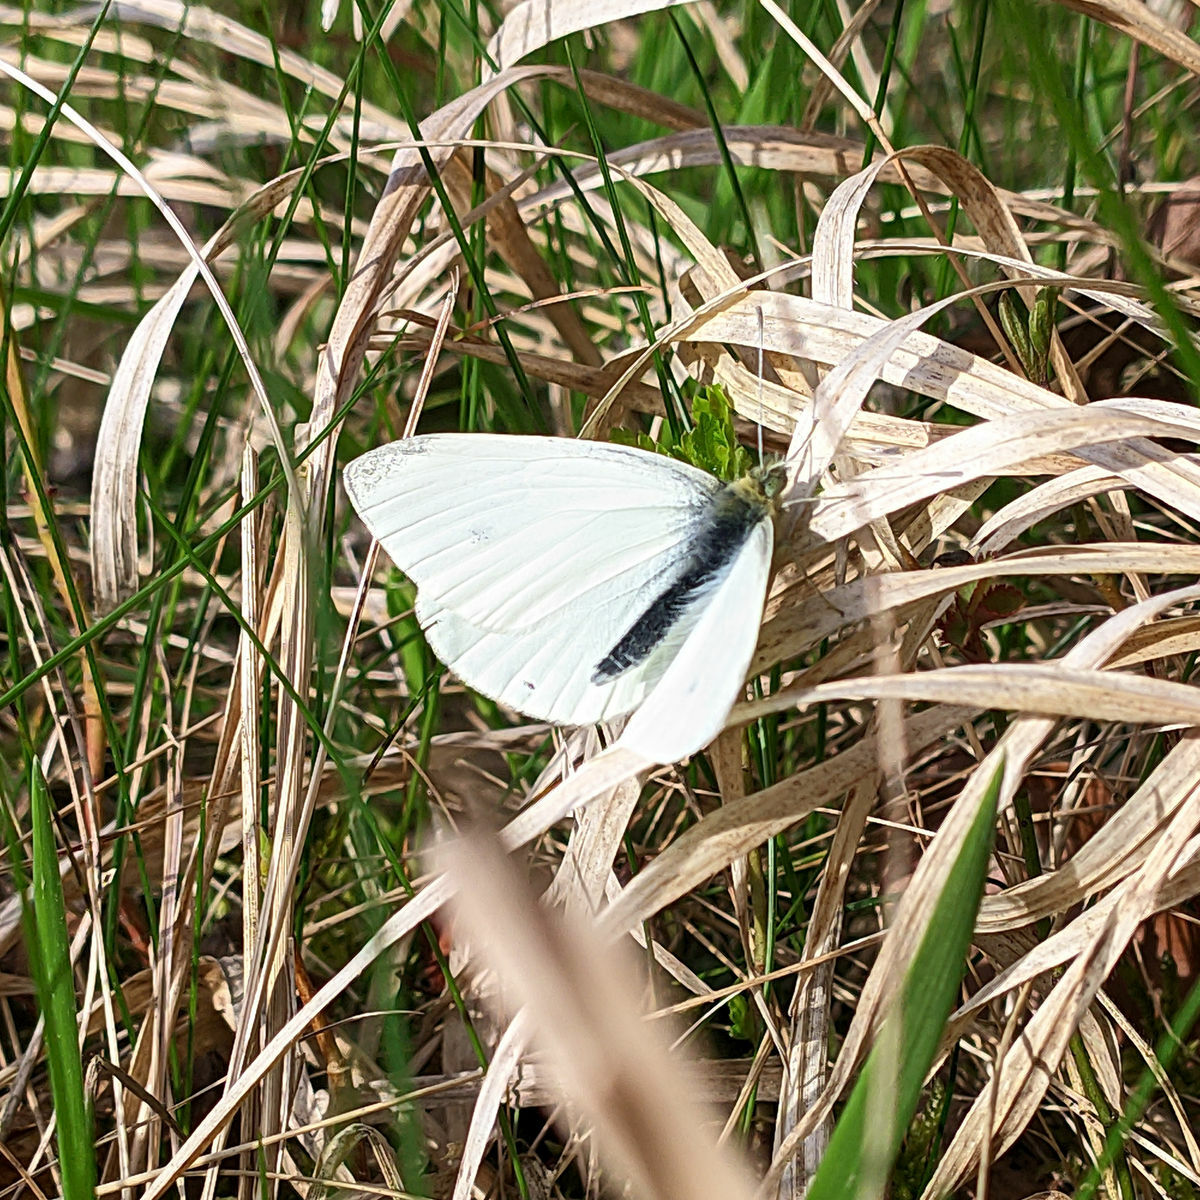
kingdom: Animalia
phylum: Arthropoda
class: Insecta
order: Lepidoptera
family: Pieridae
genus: Pieris
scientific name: Pieris rapae
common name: Small white
